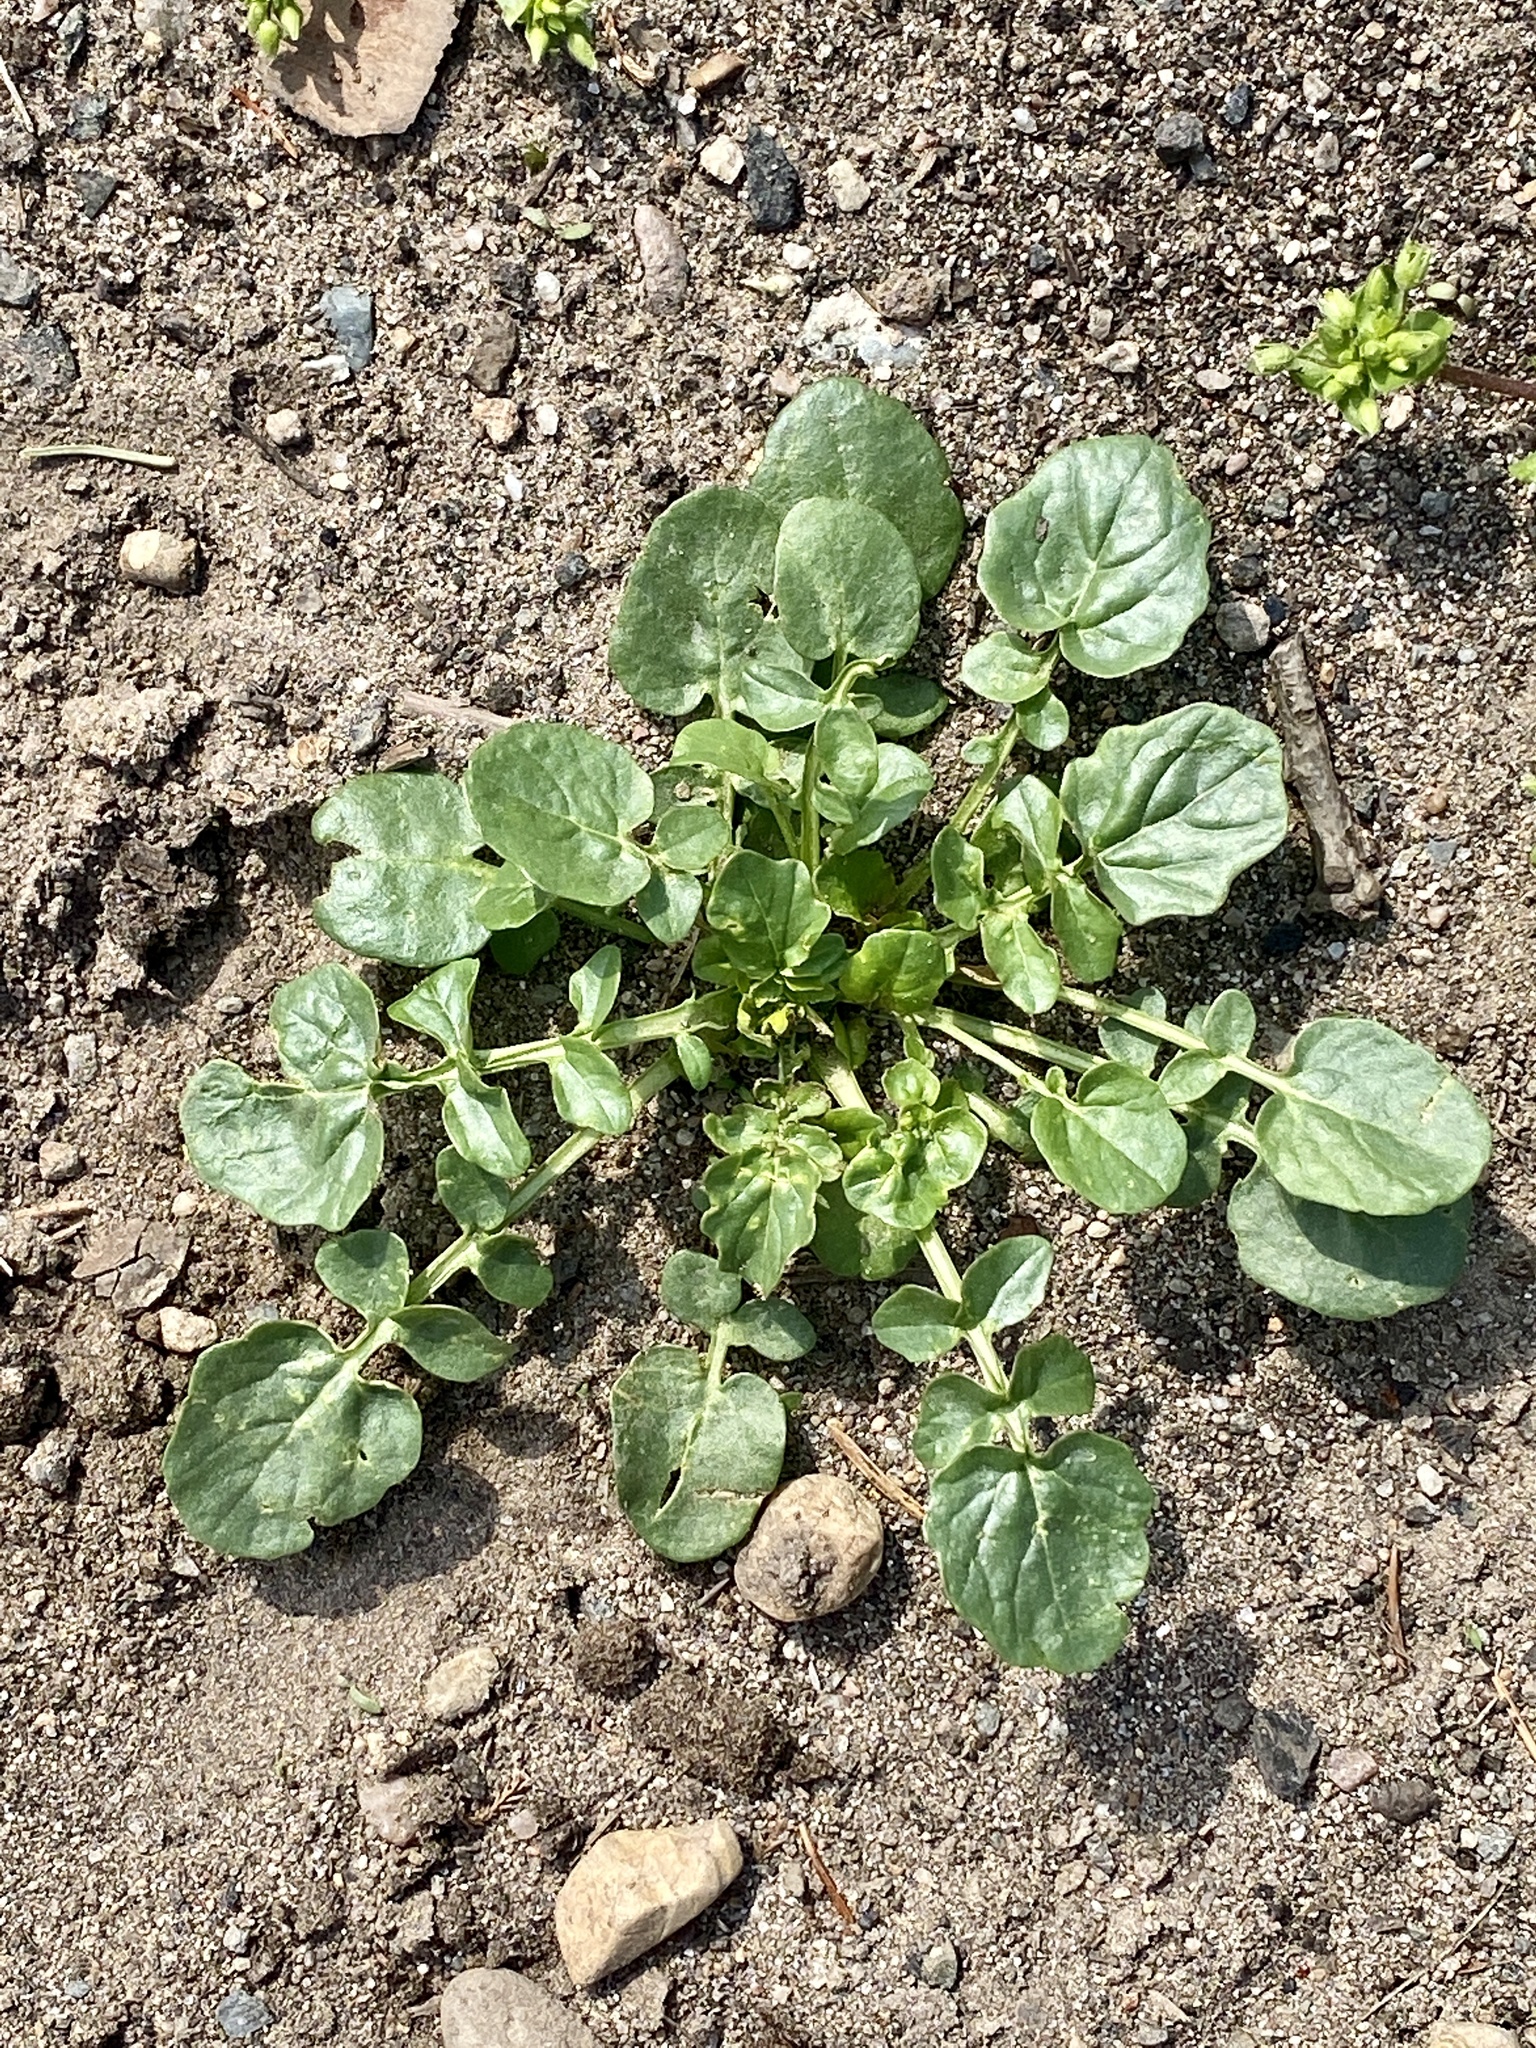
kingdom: Plantae
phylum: Tracheophyta
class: Magnoliopsida
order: Brassicales
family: Brassicaceae
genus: Barbarea
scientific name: Barbarea vulgaris
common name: Cressy-greens
